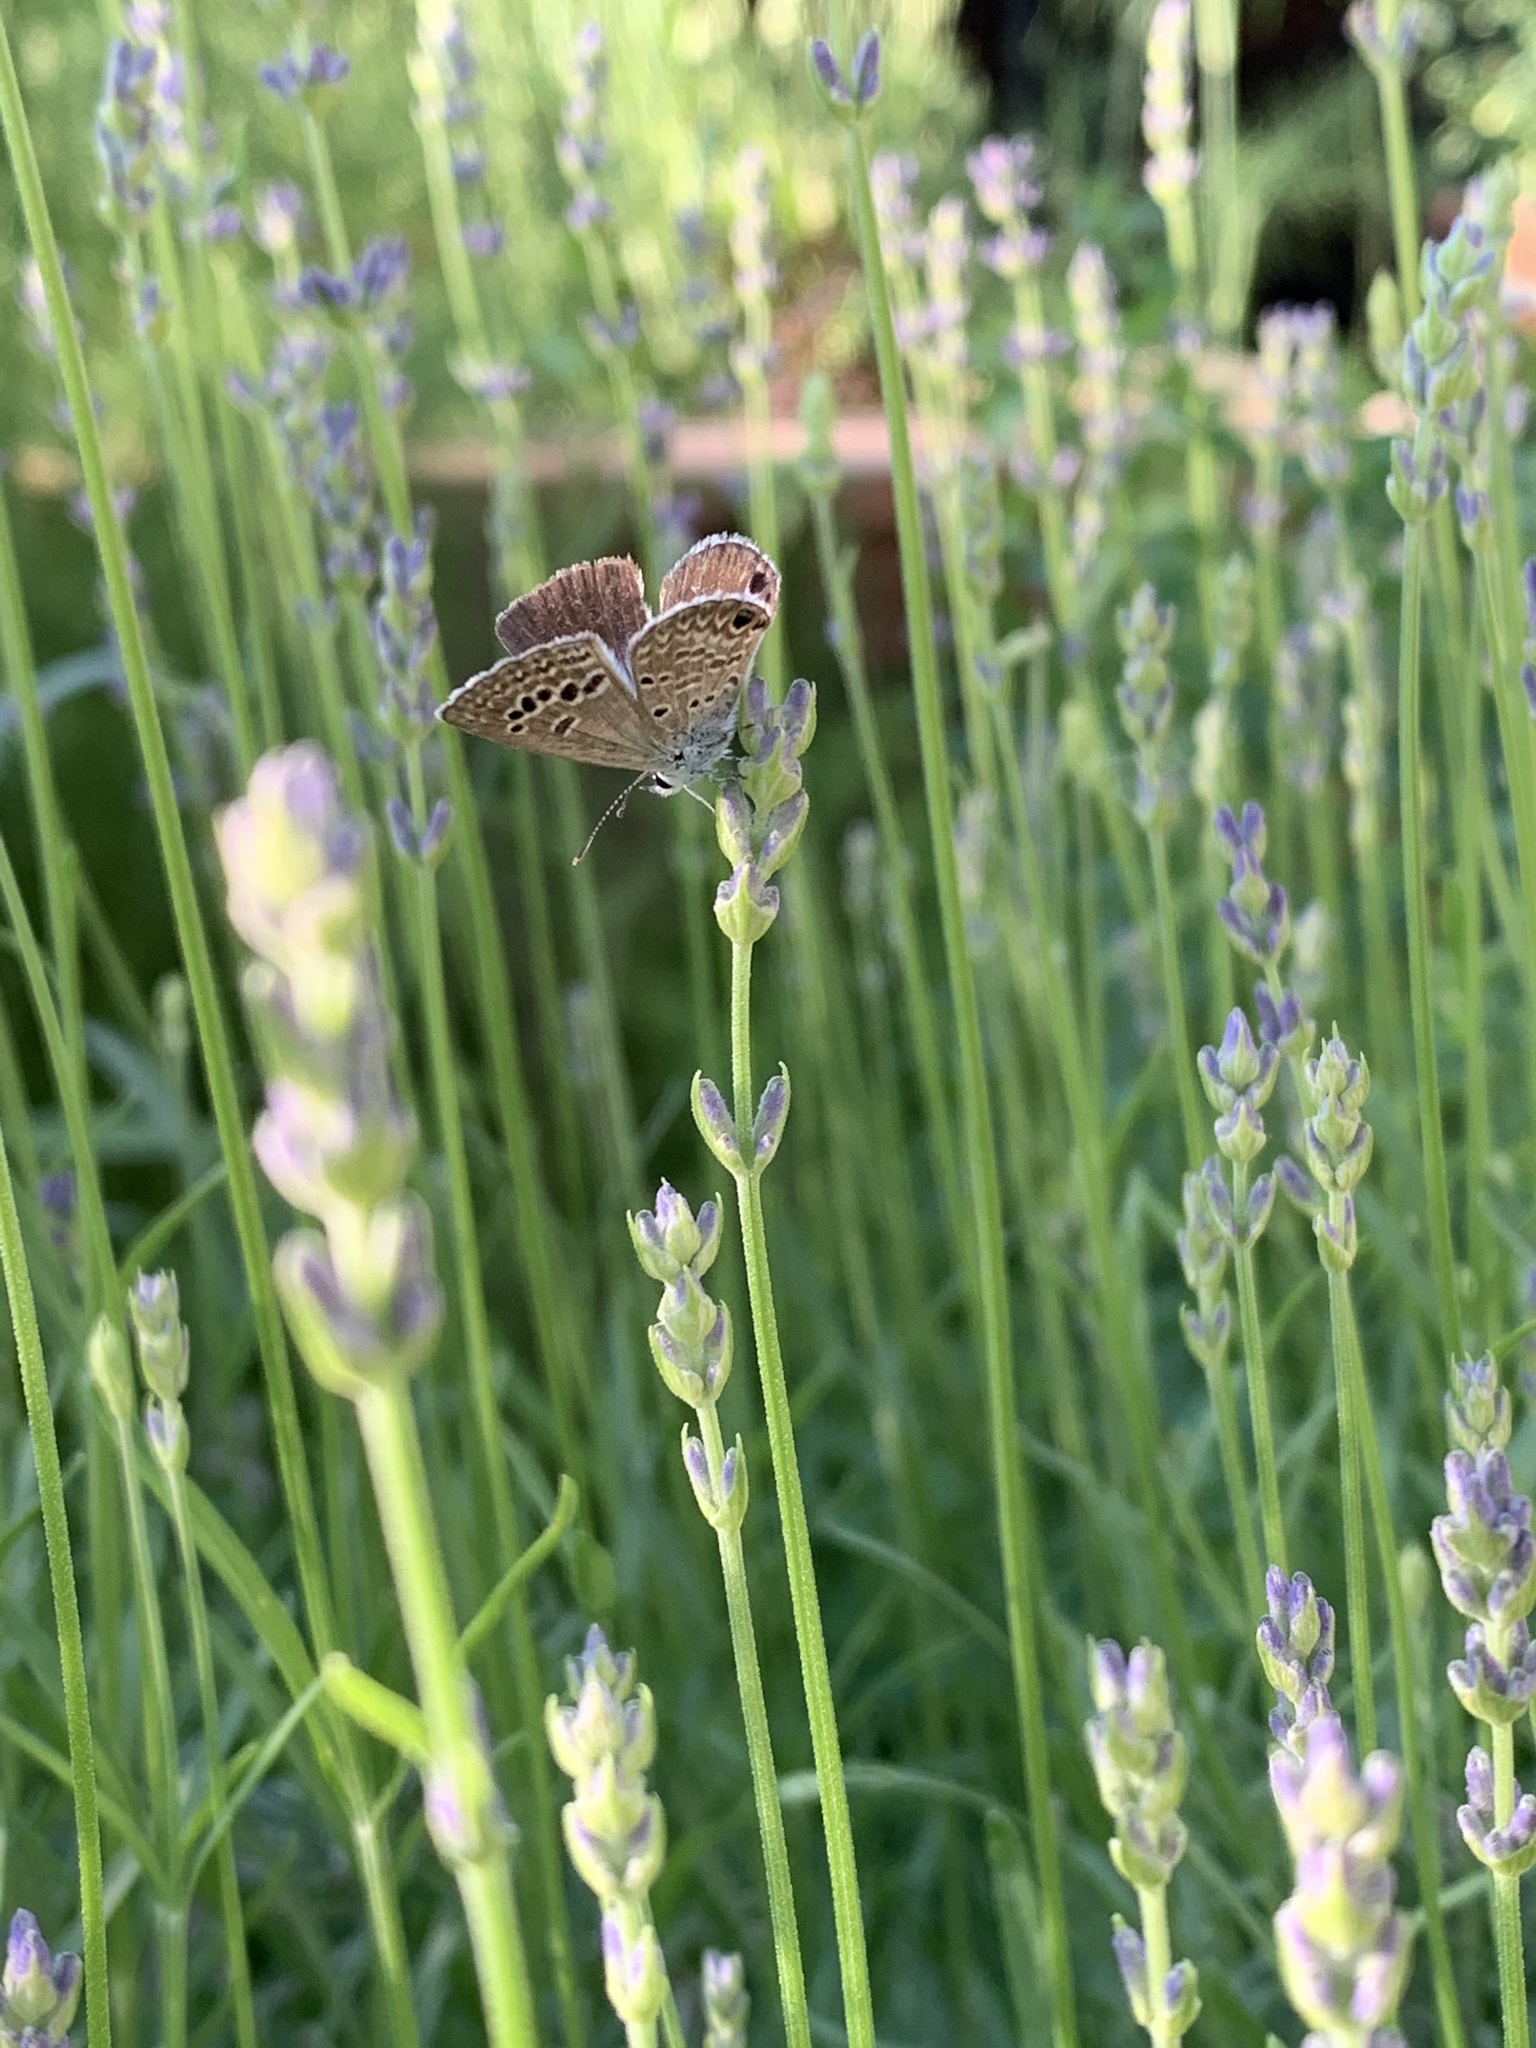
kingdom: Animalia
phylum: Arthropoda
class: Insecta
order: Lepidoptera
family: Lycaenidae
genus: Echinargus
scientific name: Echinargus isola
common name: Reakirt's blue
